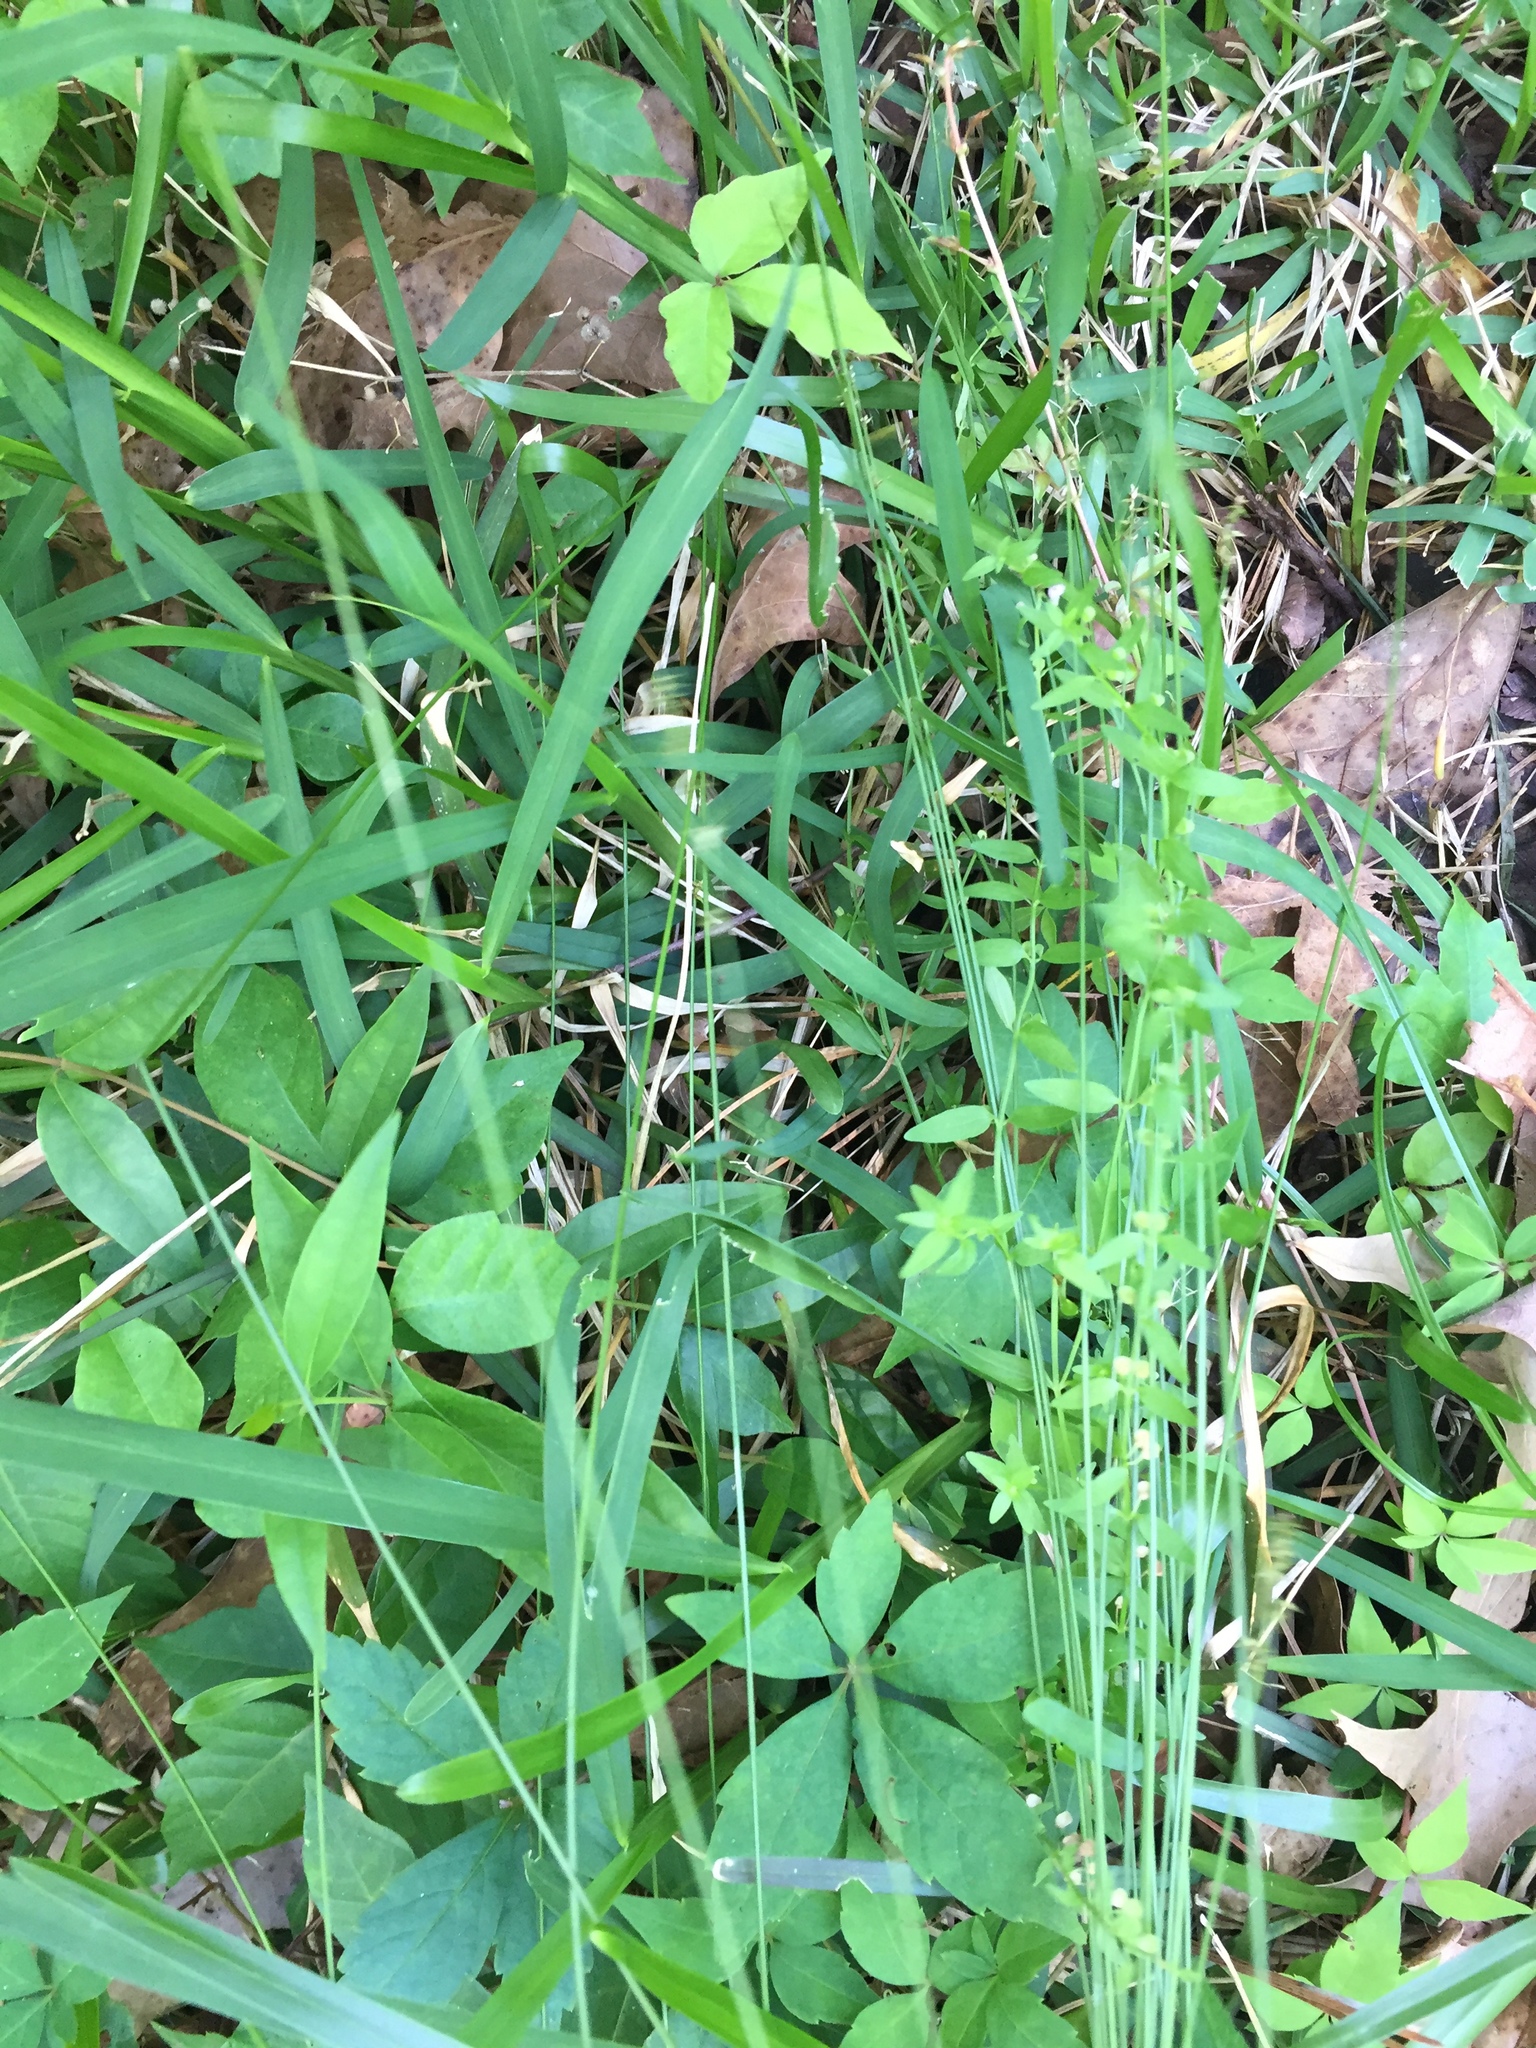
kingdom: Plantae
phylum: Tracheophyta
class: Liliopsida
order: Poales
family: Cyperaceae
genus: Carex
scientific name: Carex texensis
